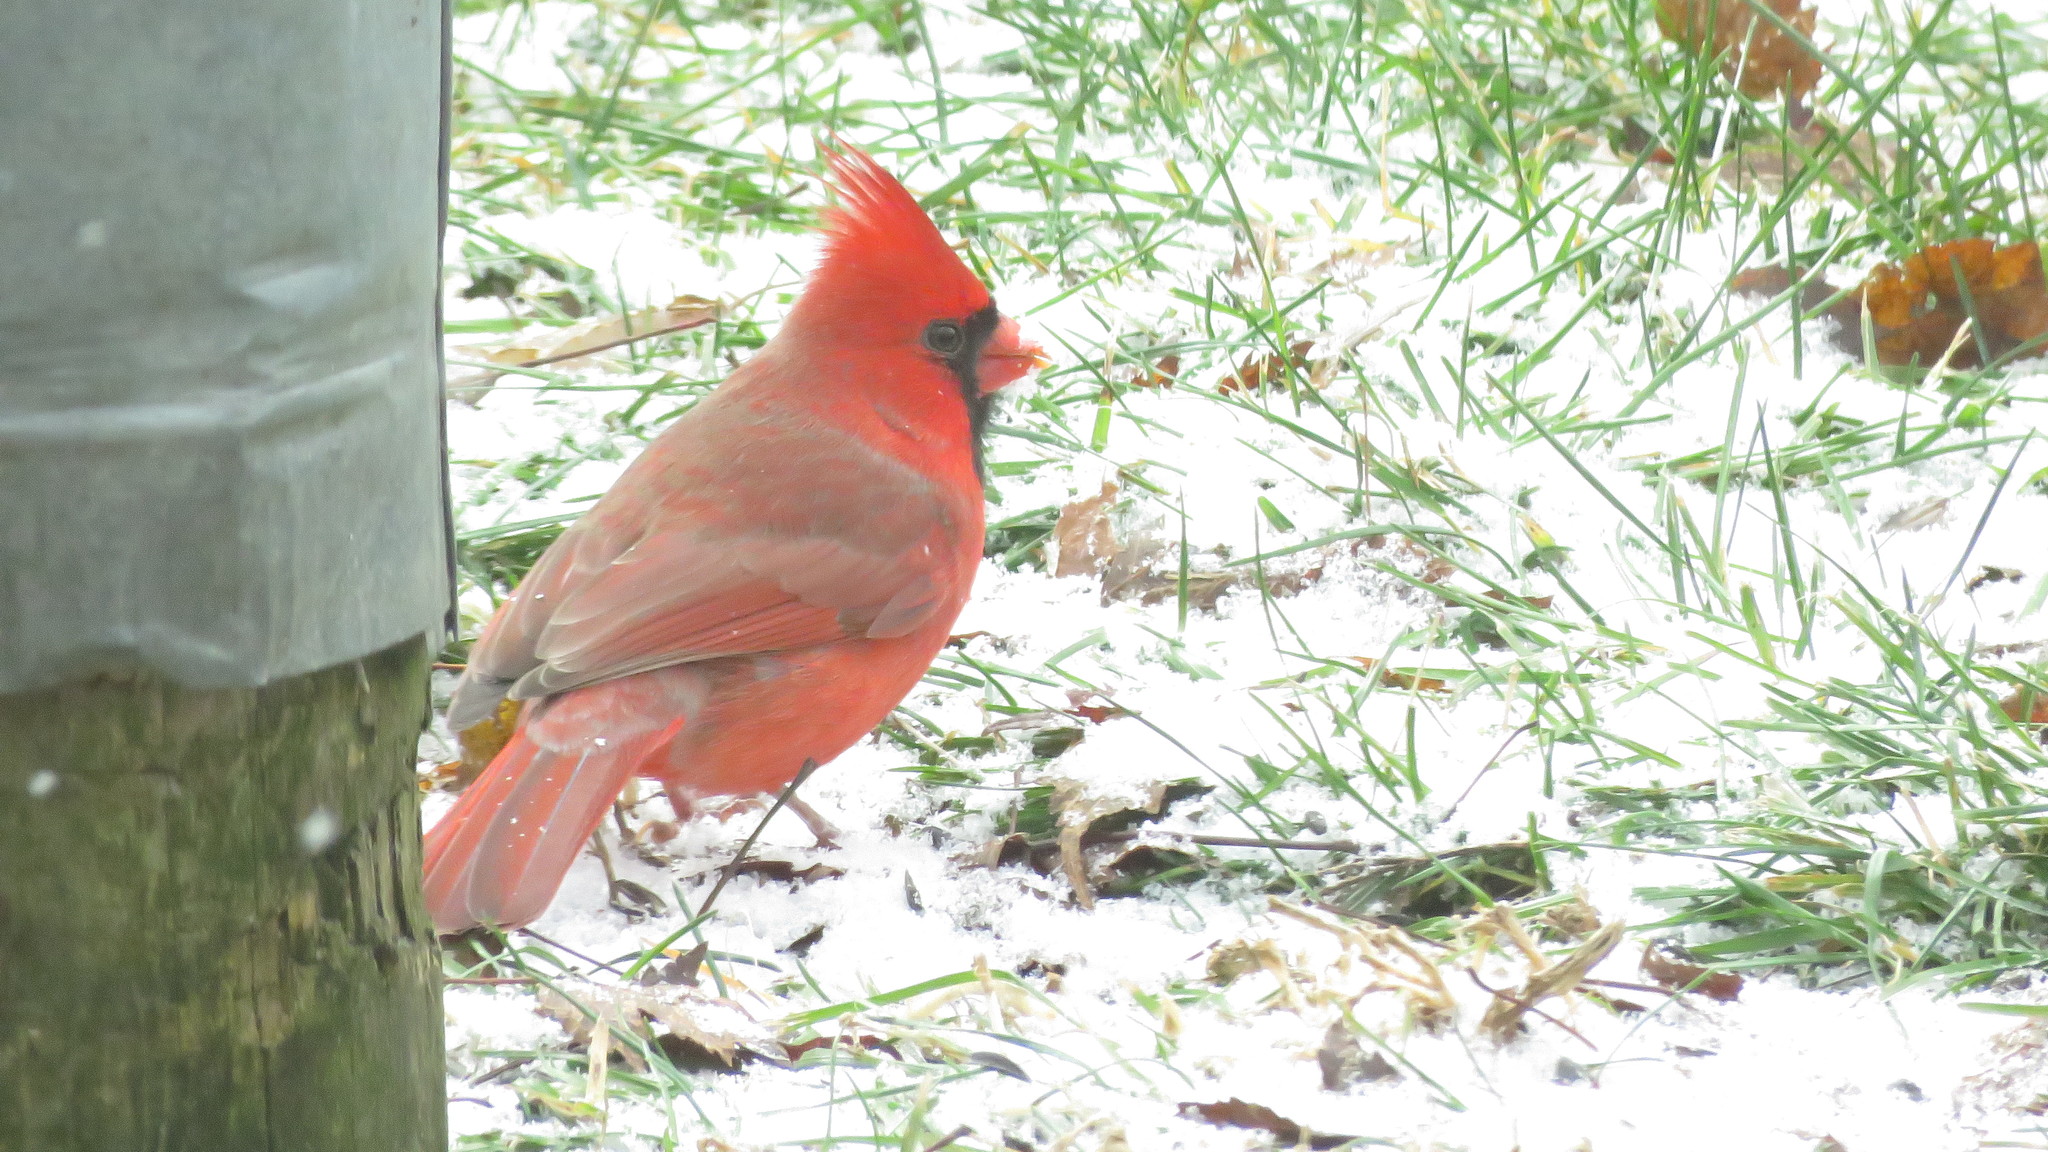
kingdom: Animalia
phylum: Chordata
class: Aves
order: Passeriformes
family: Cardinalidae
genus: Cardinalis
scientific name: Cardinalis cardinalis
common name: Northern cardinal
